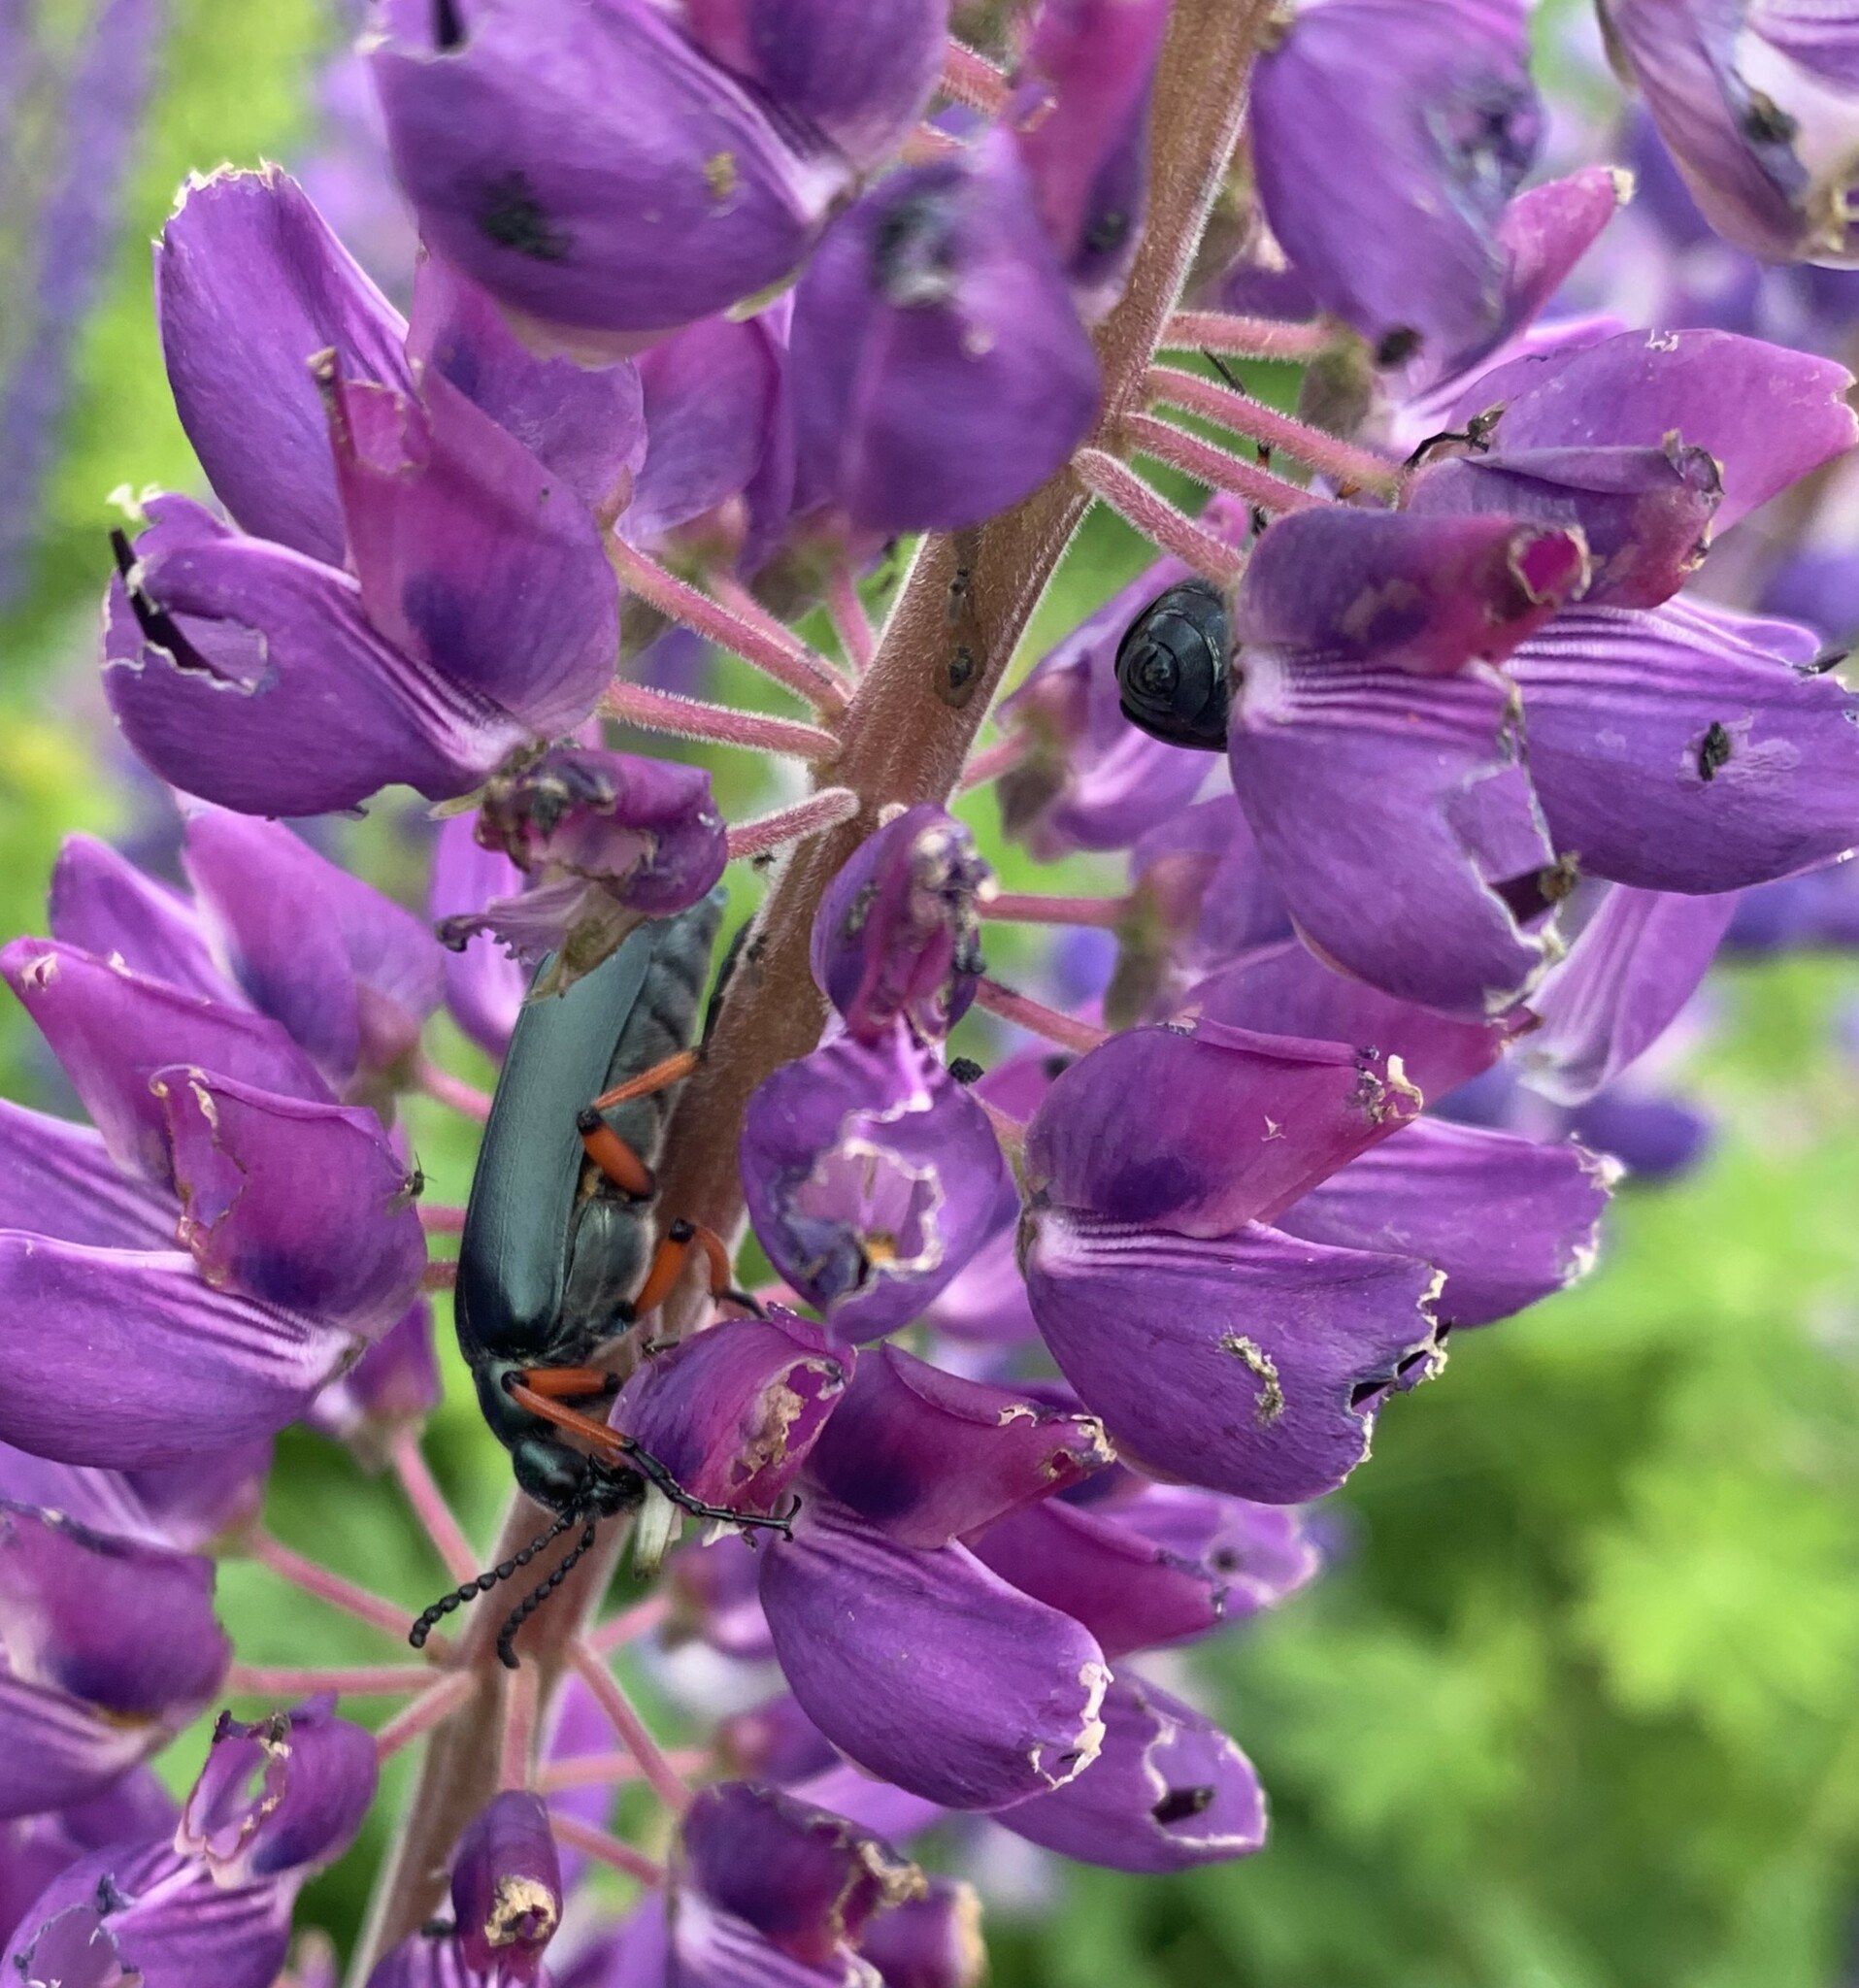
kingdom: Animalia
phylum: Arthropoda
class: Insecta
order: Coleoptera
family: Meloidae
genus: Lytta
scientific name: Lytta sayi
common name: Say's blister beetle
